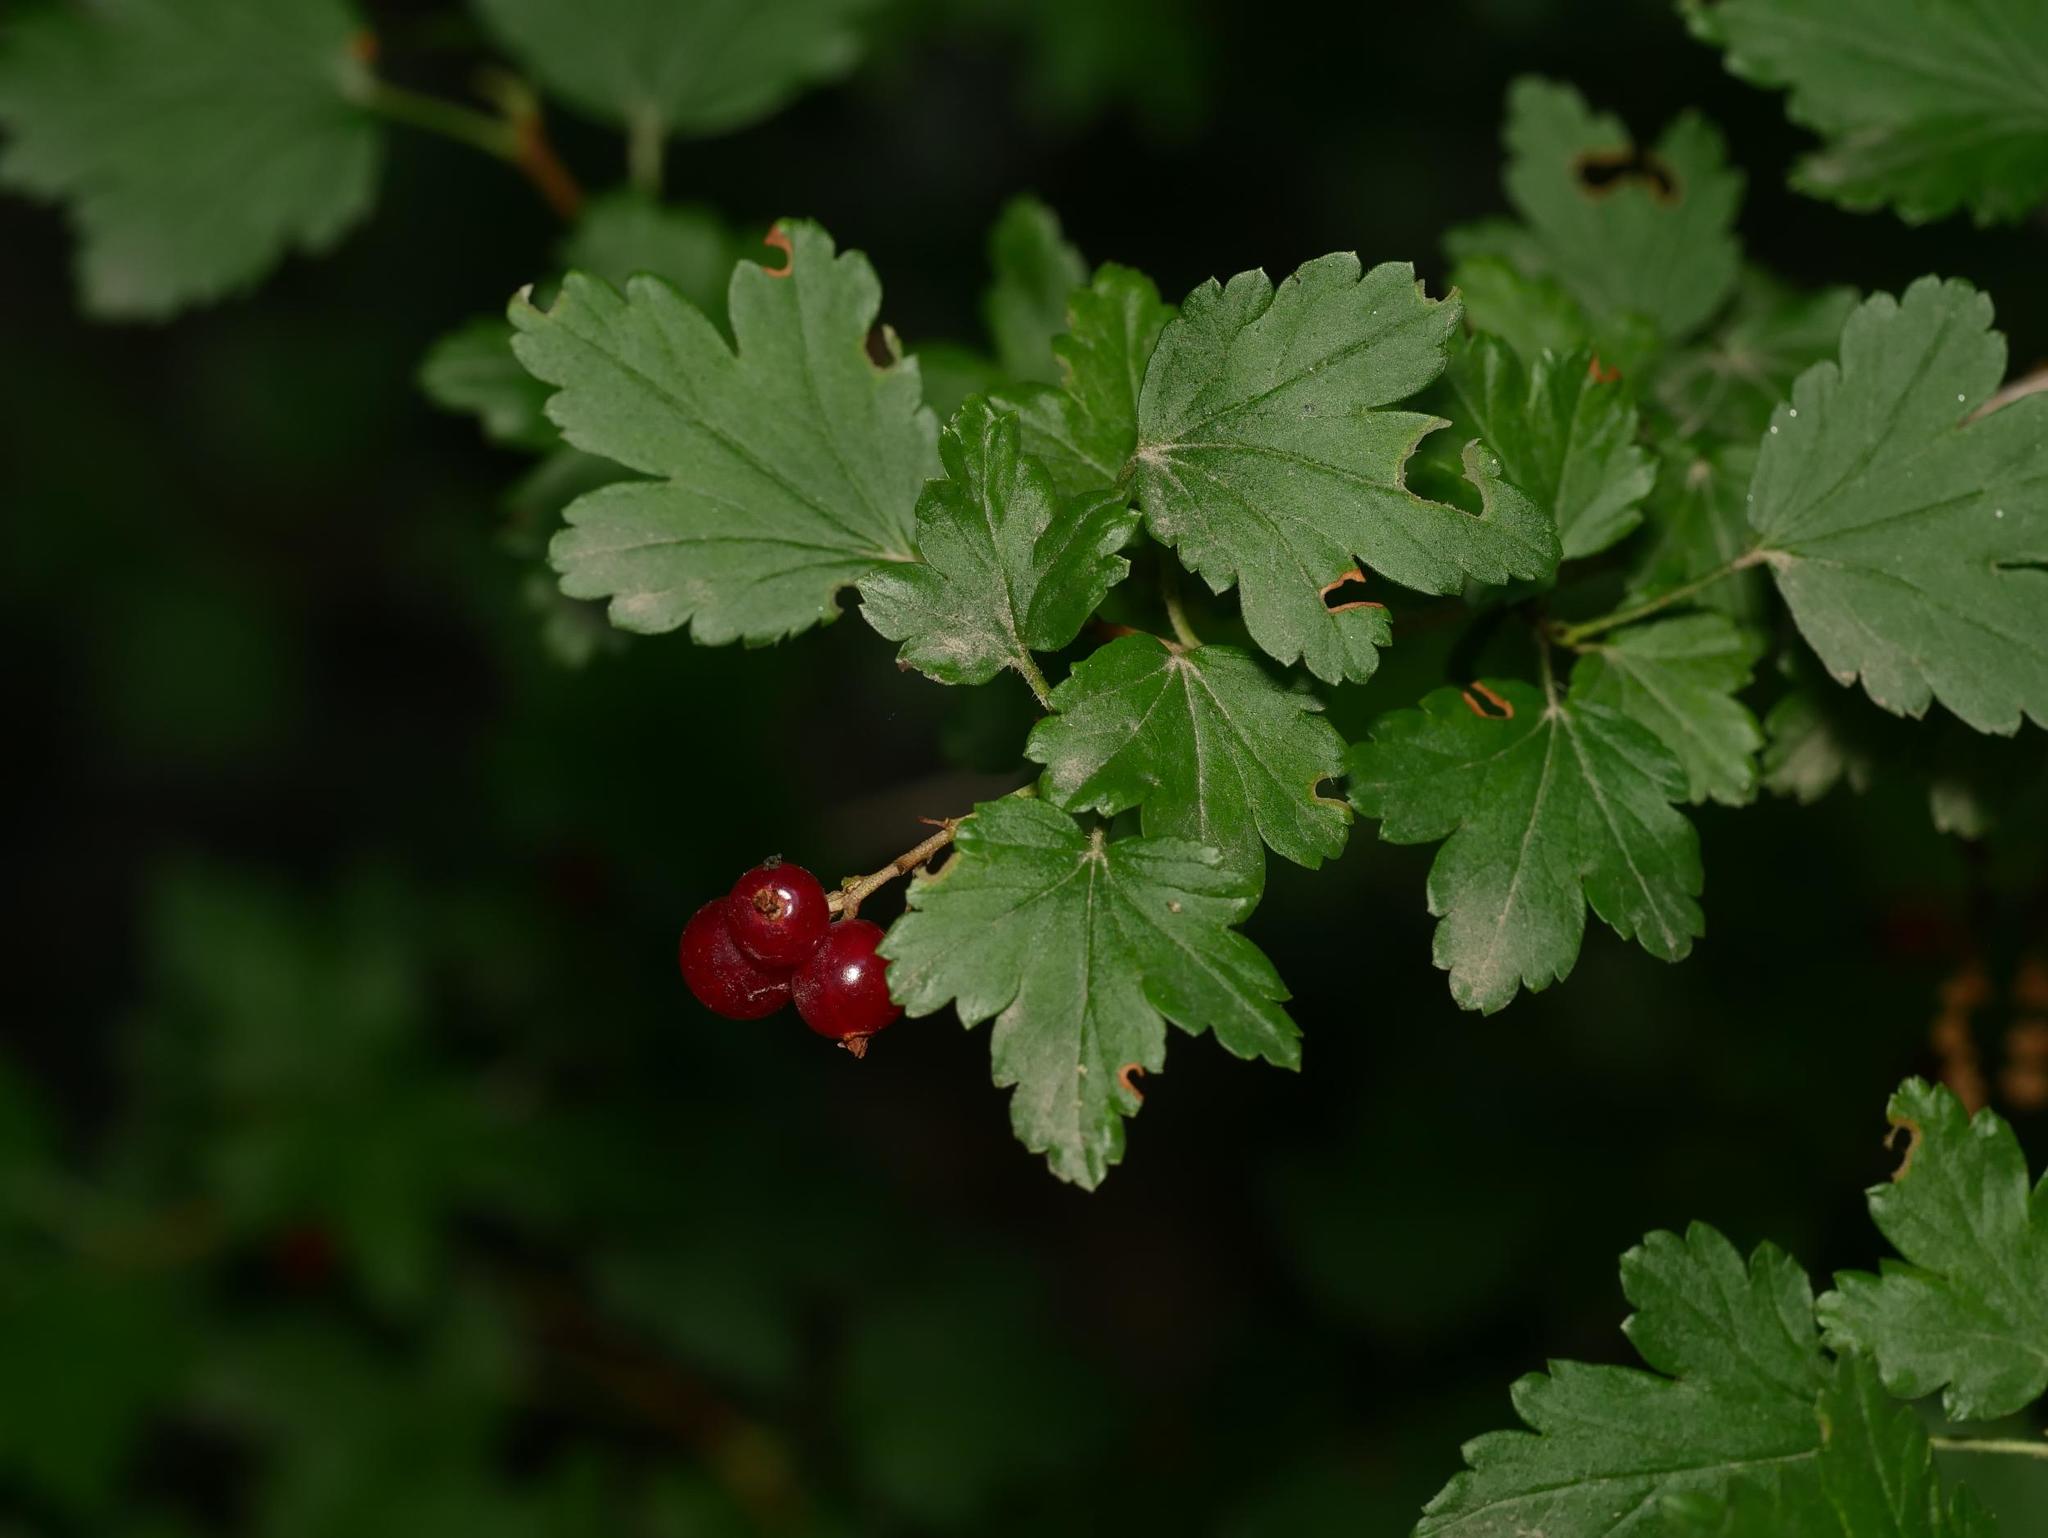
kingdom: Plantae
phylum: Tracheophyta
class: Magnoliopsida
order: Saxifragales
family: Grossulariaceae
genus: Ribes
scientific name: Ribes alpinum
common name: Alpine currant
